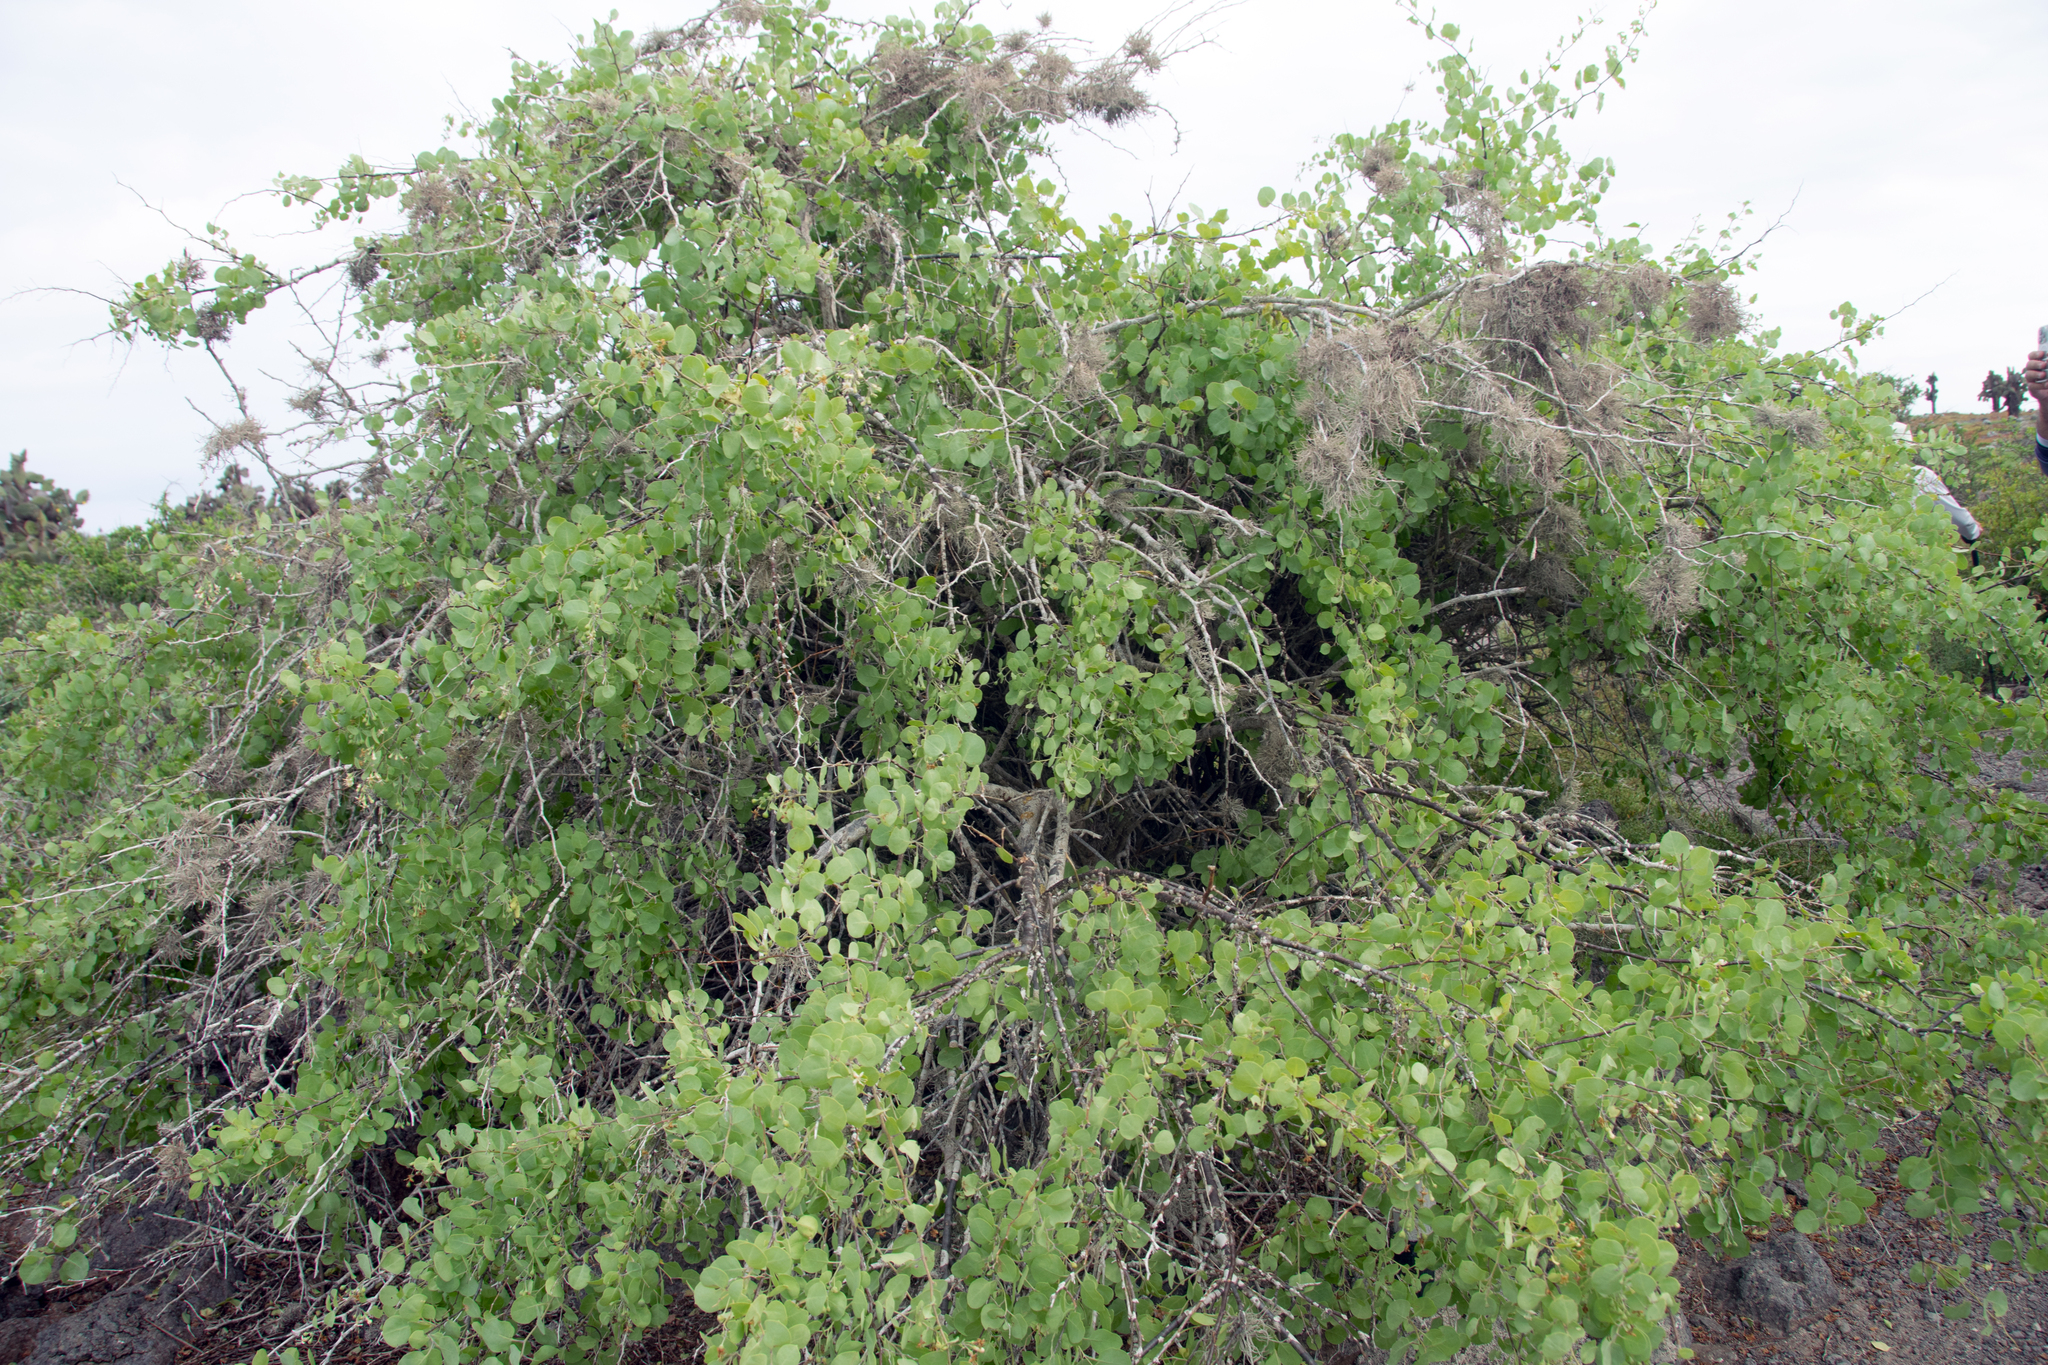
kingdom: Plantae
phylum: Tracheophyta
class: Magnoliopsida
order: Solanales
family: Solanaceae
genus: Lycium
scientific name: Lycium boerhaaviifolium
